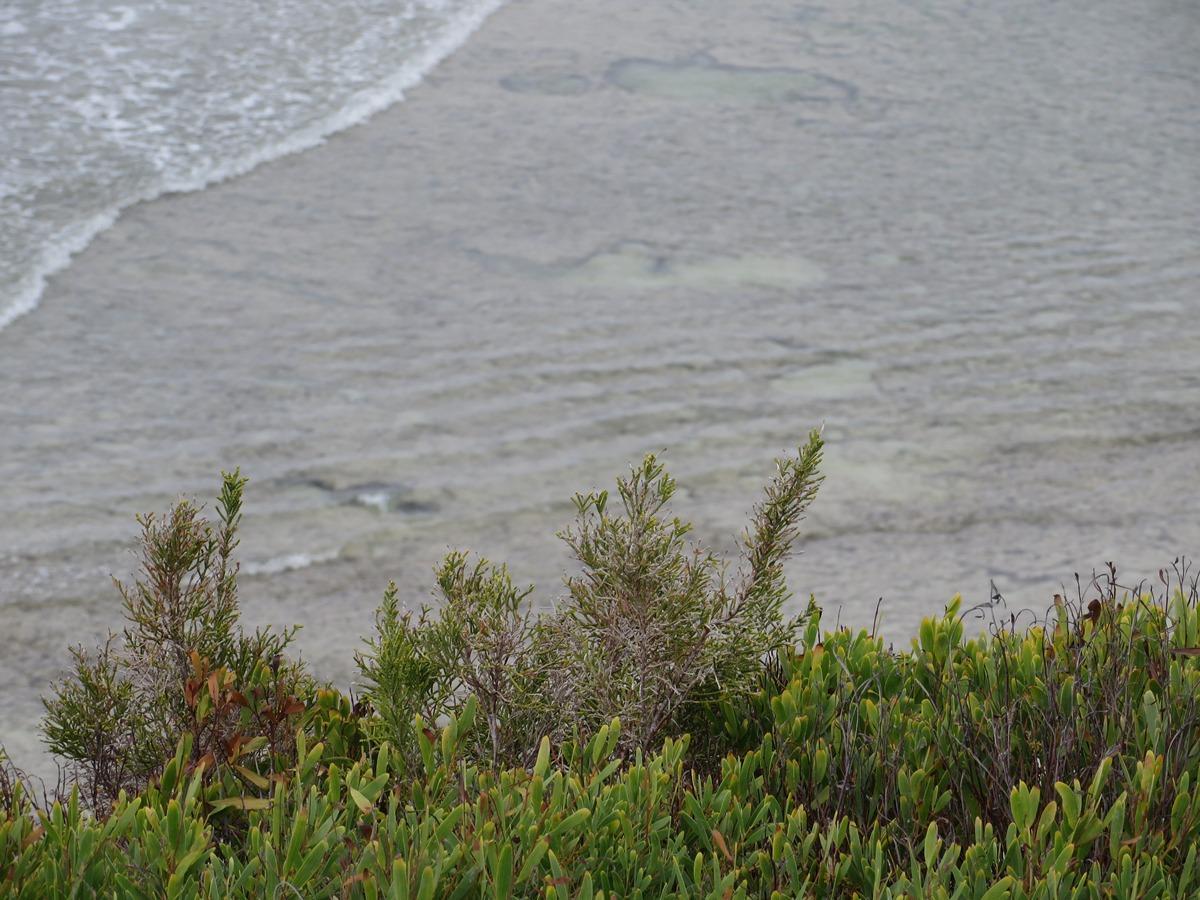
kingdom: Plantae
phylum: Tracheophyta
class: Magnoliopsida
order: Malvales
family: Thymelaeaceae
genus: Passerina
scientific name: Passerina rigida
